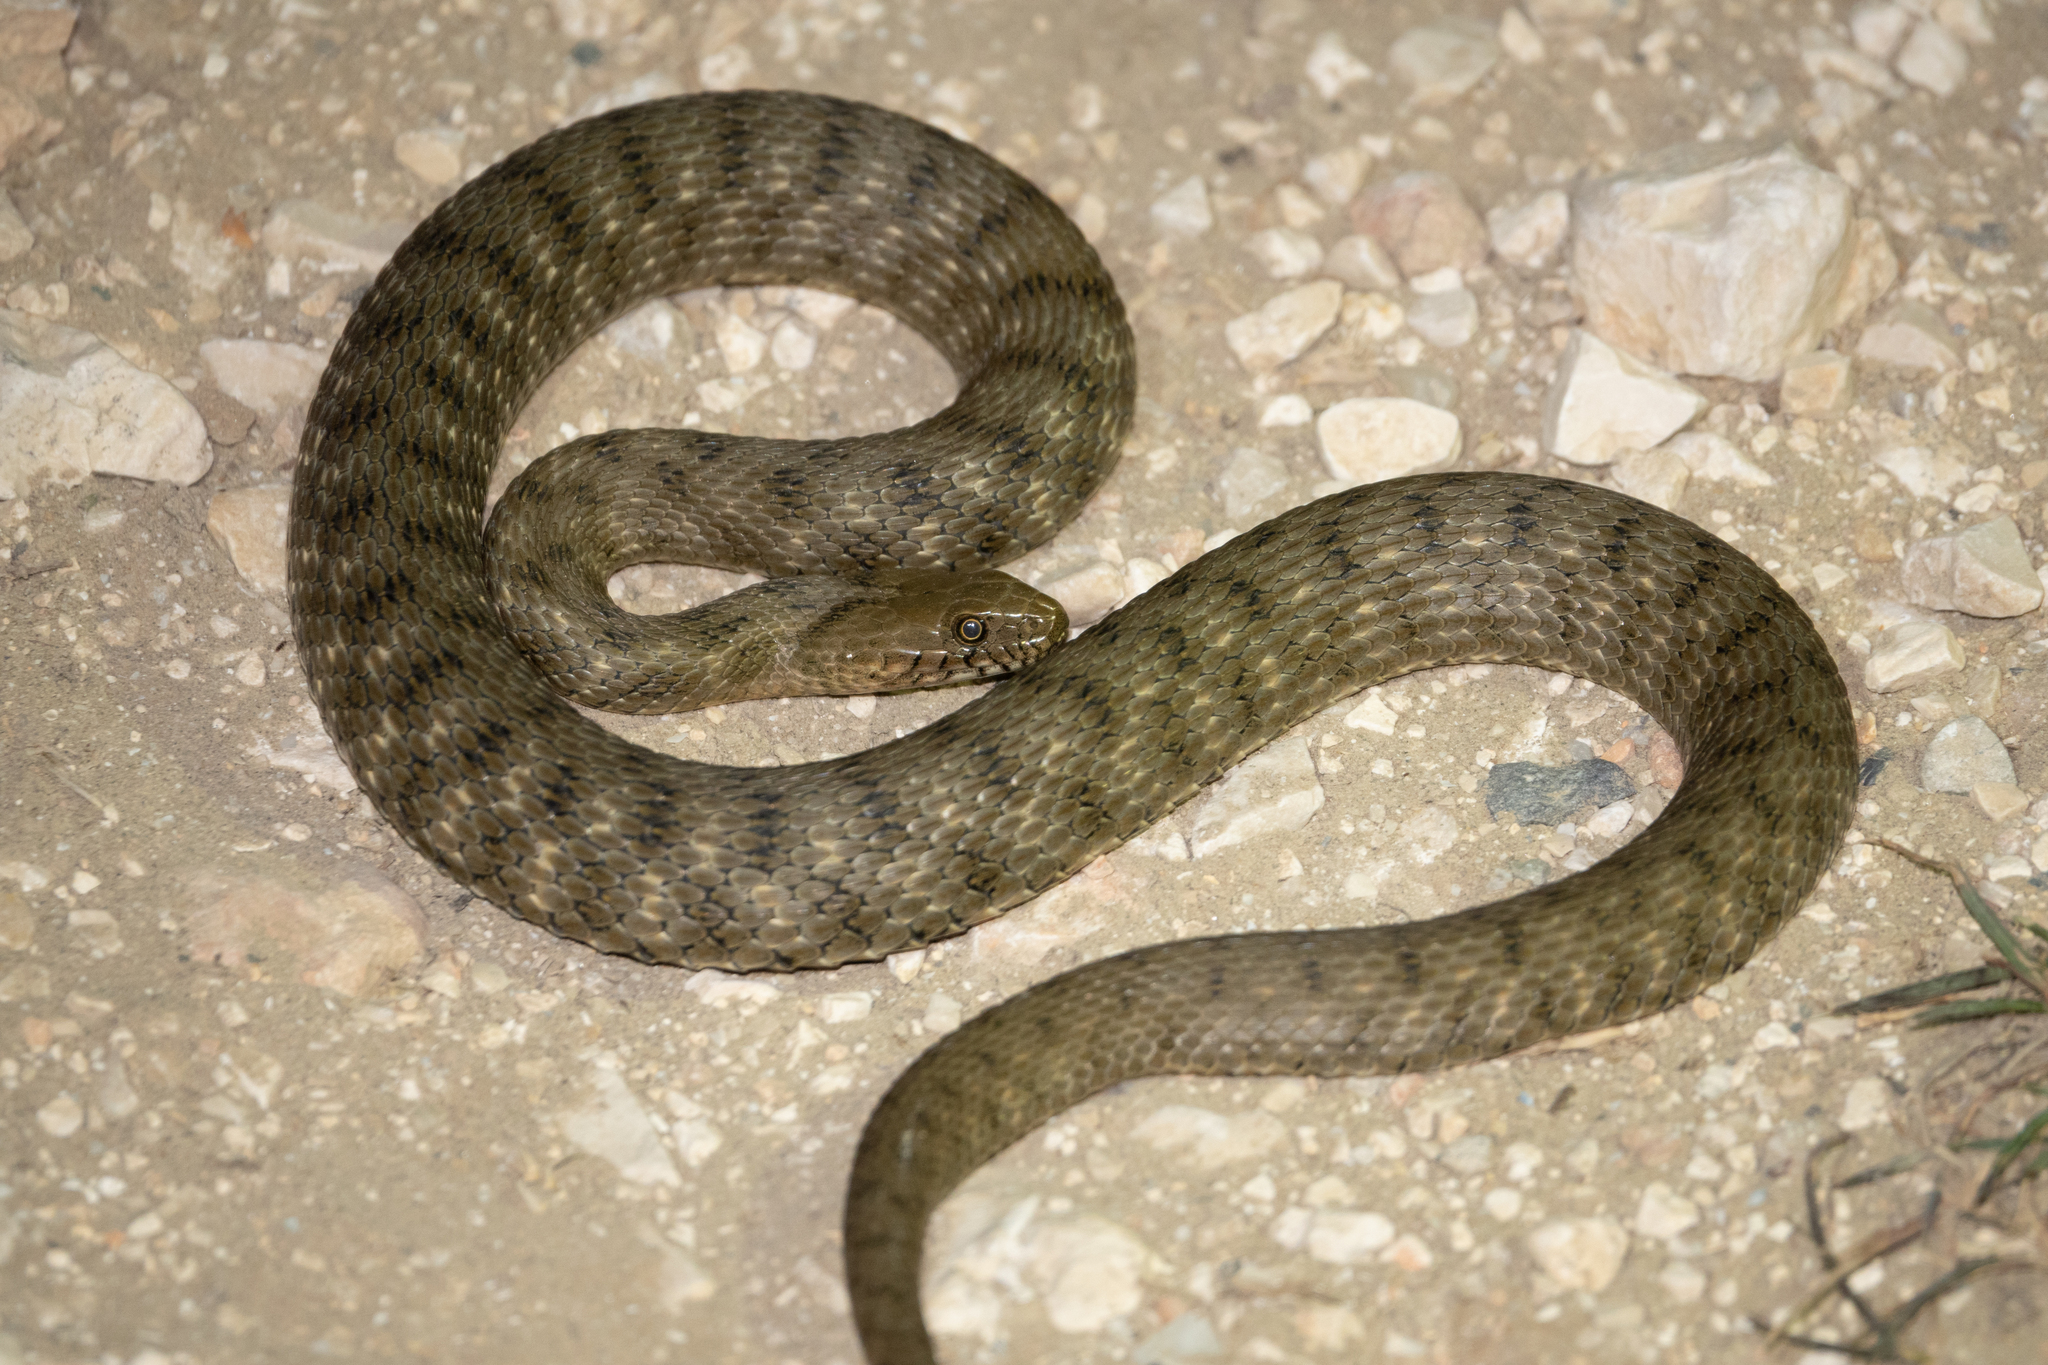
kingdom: Animalia
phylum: Chordata
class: Squamata
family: Colubridae
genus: Natrix
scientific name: Natrix tessellata
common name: Dice snake
